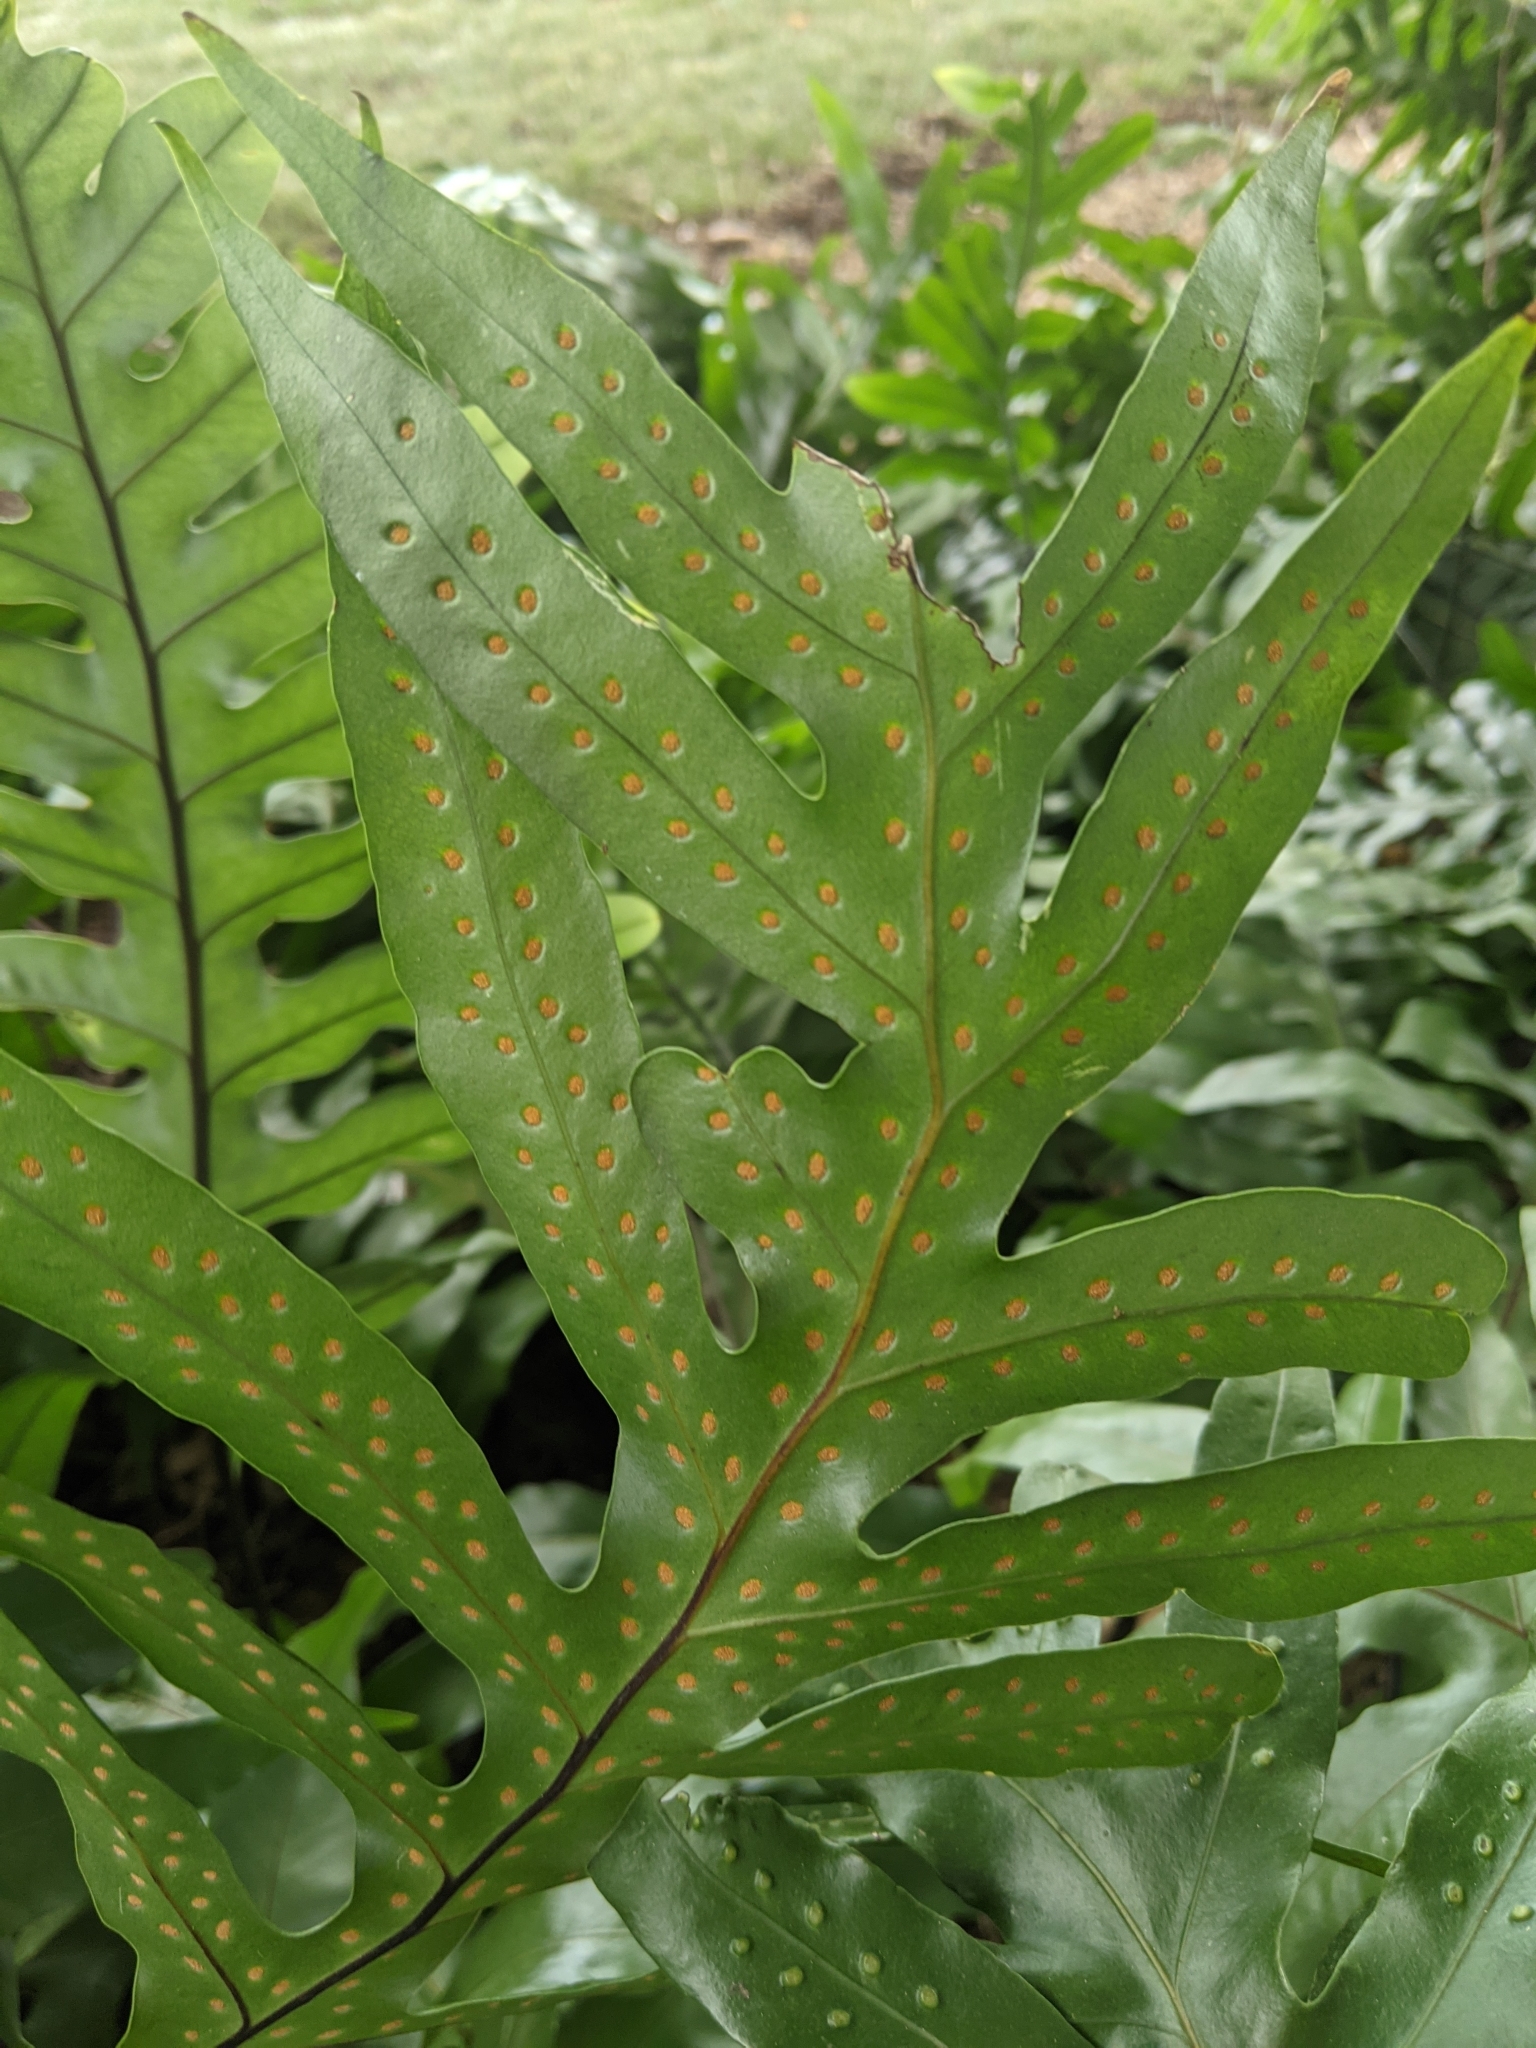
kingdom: Plantae
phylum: Tracheophyta
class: Polypodiopsida
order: Polypodiales
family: Polypodiaceae
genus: Microsorum
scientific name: Microsorum grossum
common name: Musk fern
